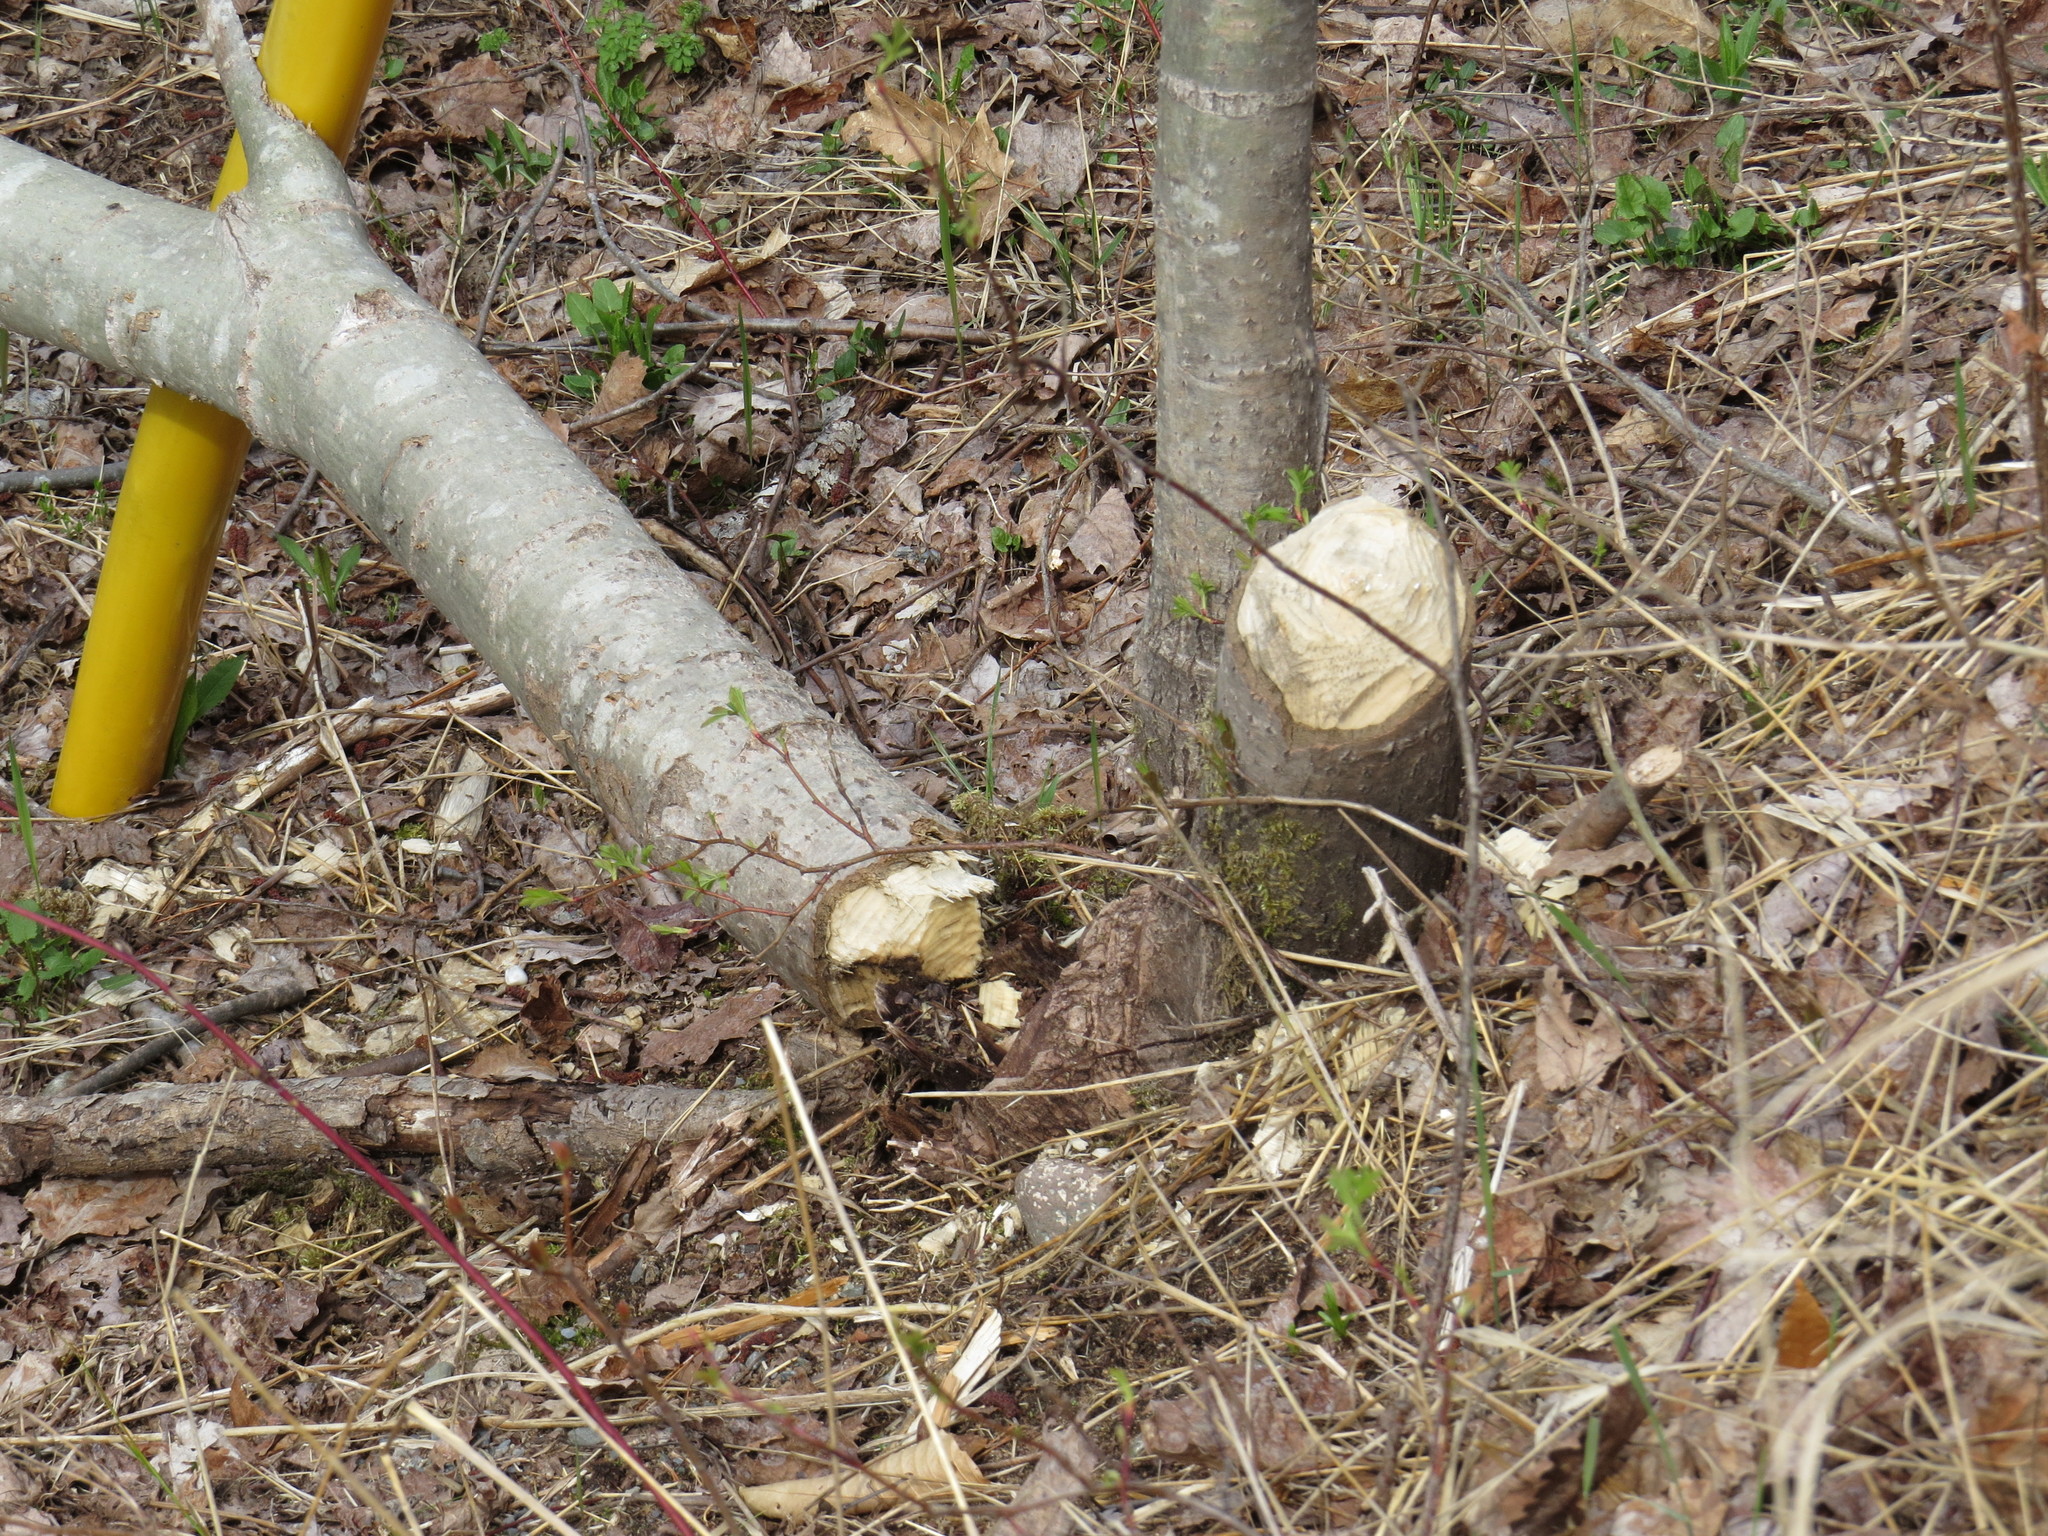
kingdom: Animalia
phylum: Chordata
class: Mammalia
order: Rodentia
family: Castoridae
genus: Castor
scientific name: Castor canadensis
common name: American beaver
